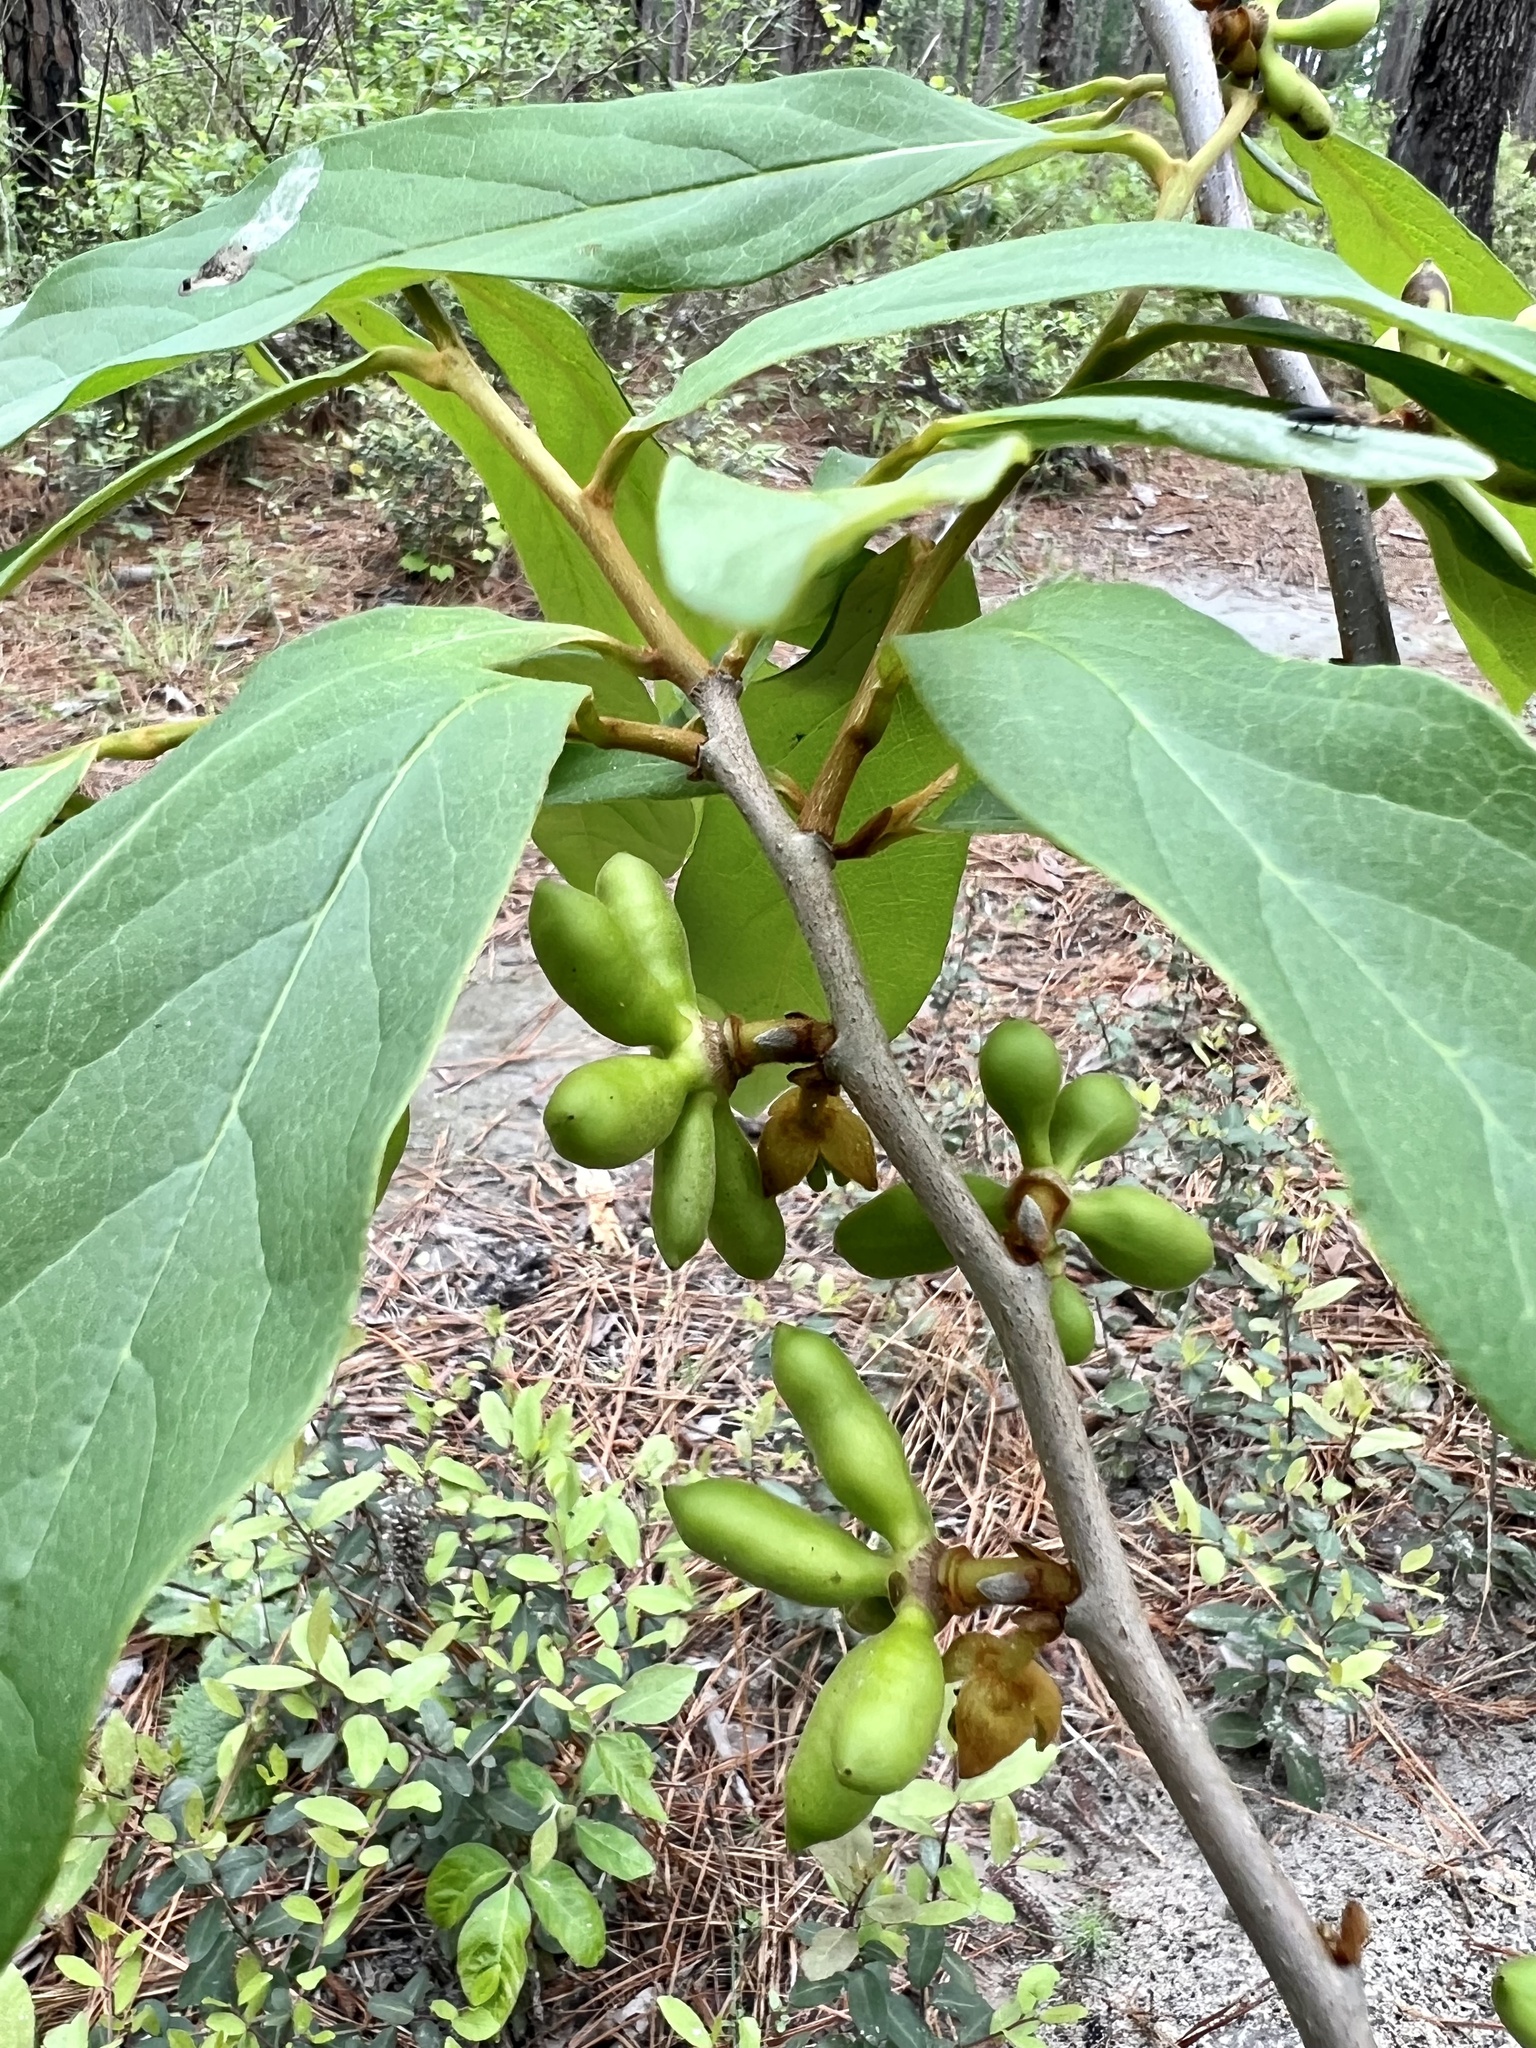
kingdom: Plantae
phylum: Tracheophyta
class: Magnoliopsida
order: Magnoliales
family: Annonaceae
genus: Asimina
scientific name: Asimina parviflora
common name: Dwarf pawpaw
